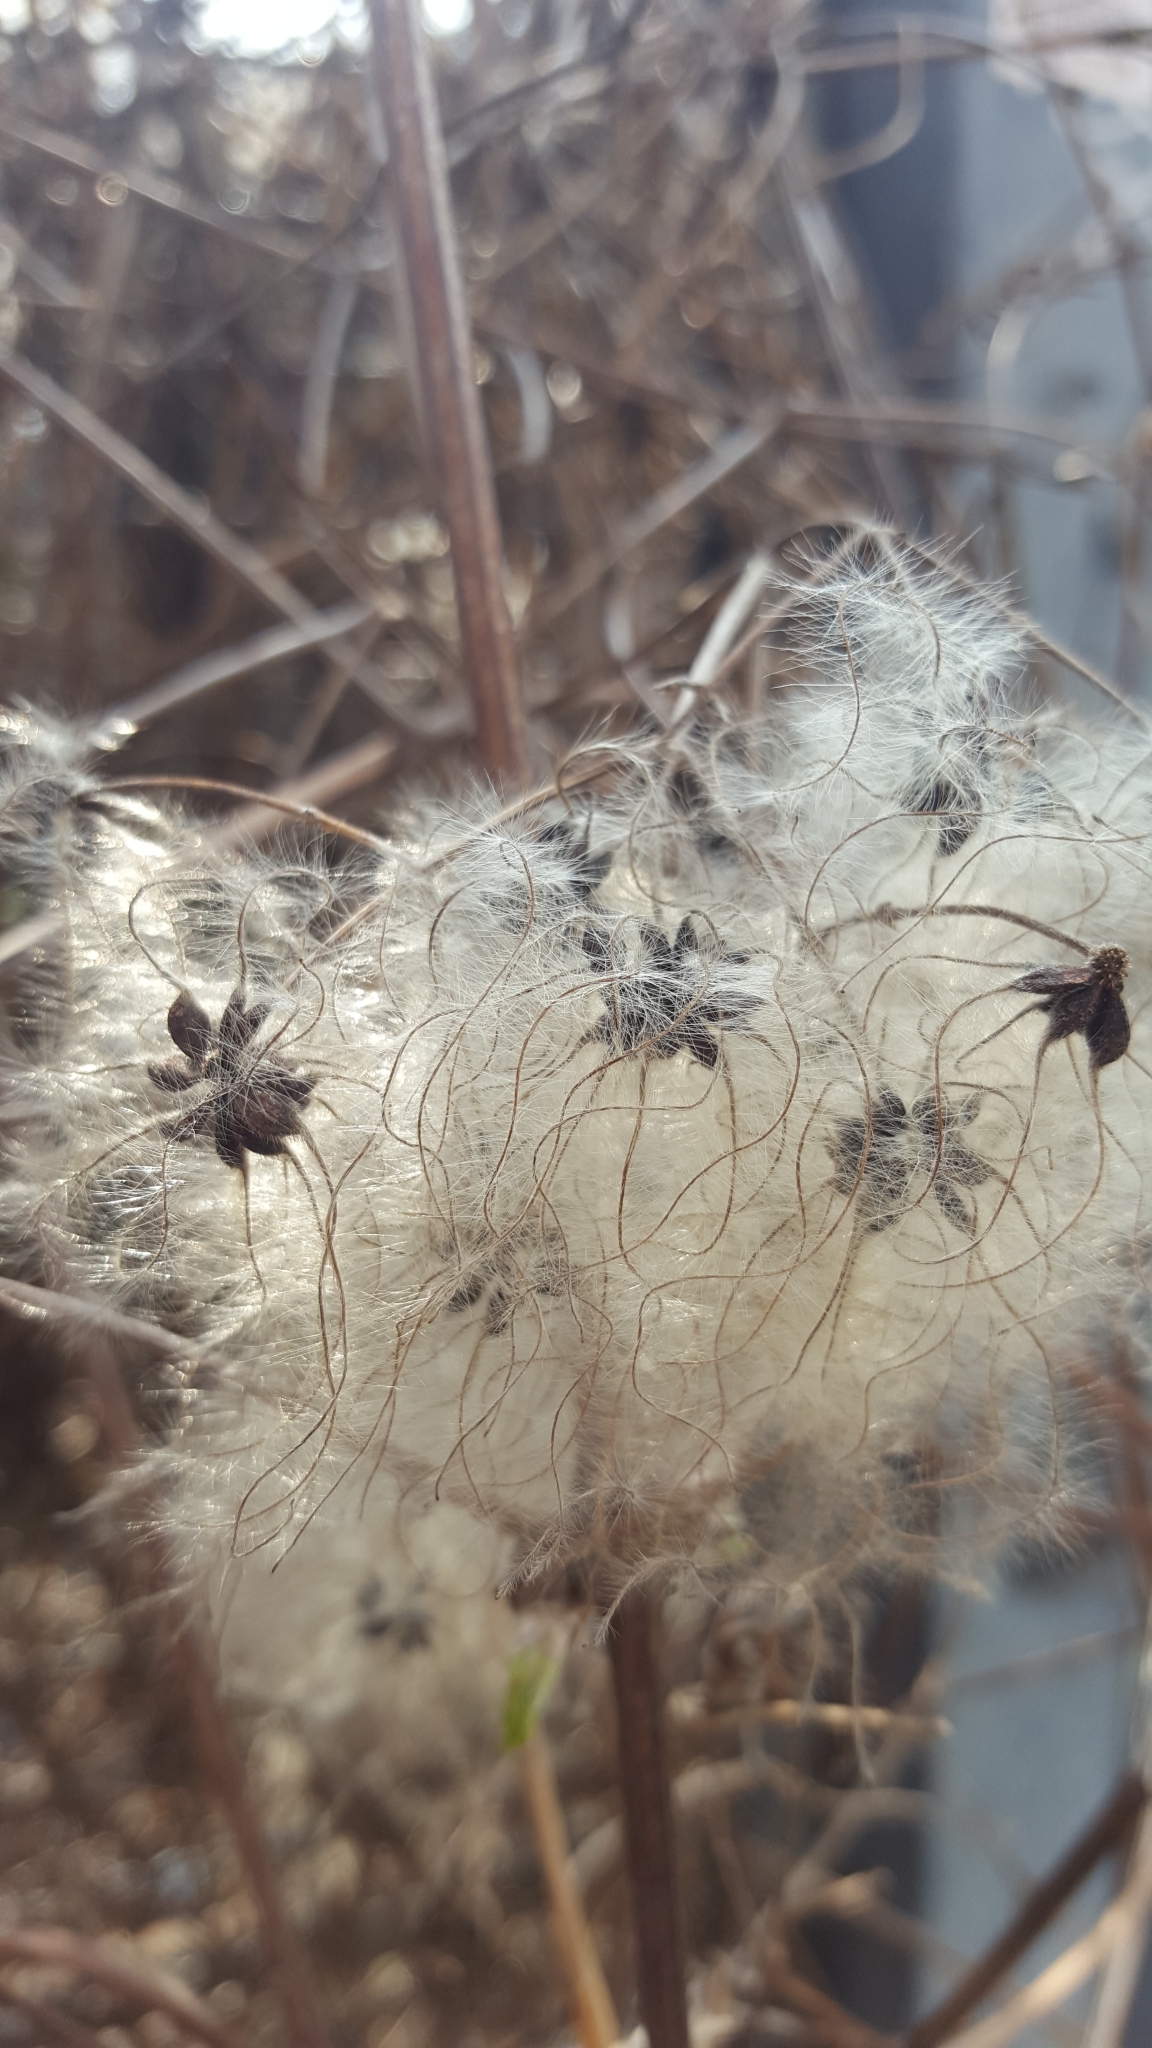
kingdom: Plantae
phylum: Tracheophyta
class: Magnoliopsida
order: Ranunculales
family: Ranunculaceae
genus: Clematis
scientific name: Clematis vitalba
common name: Evergreen clematis
